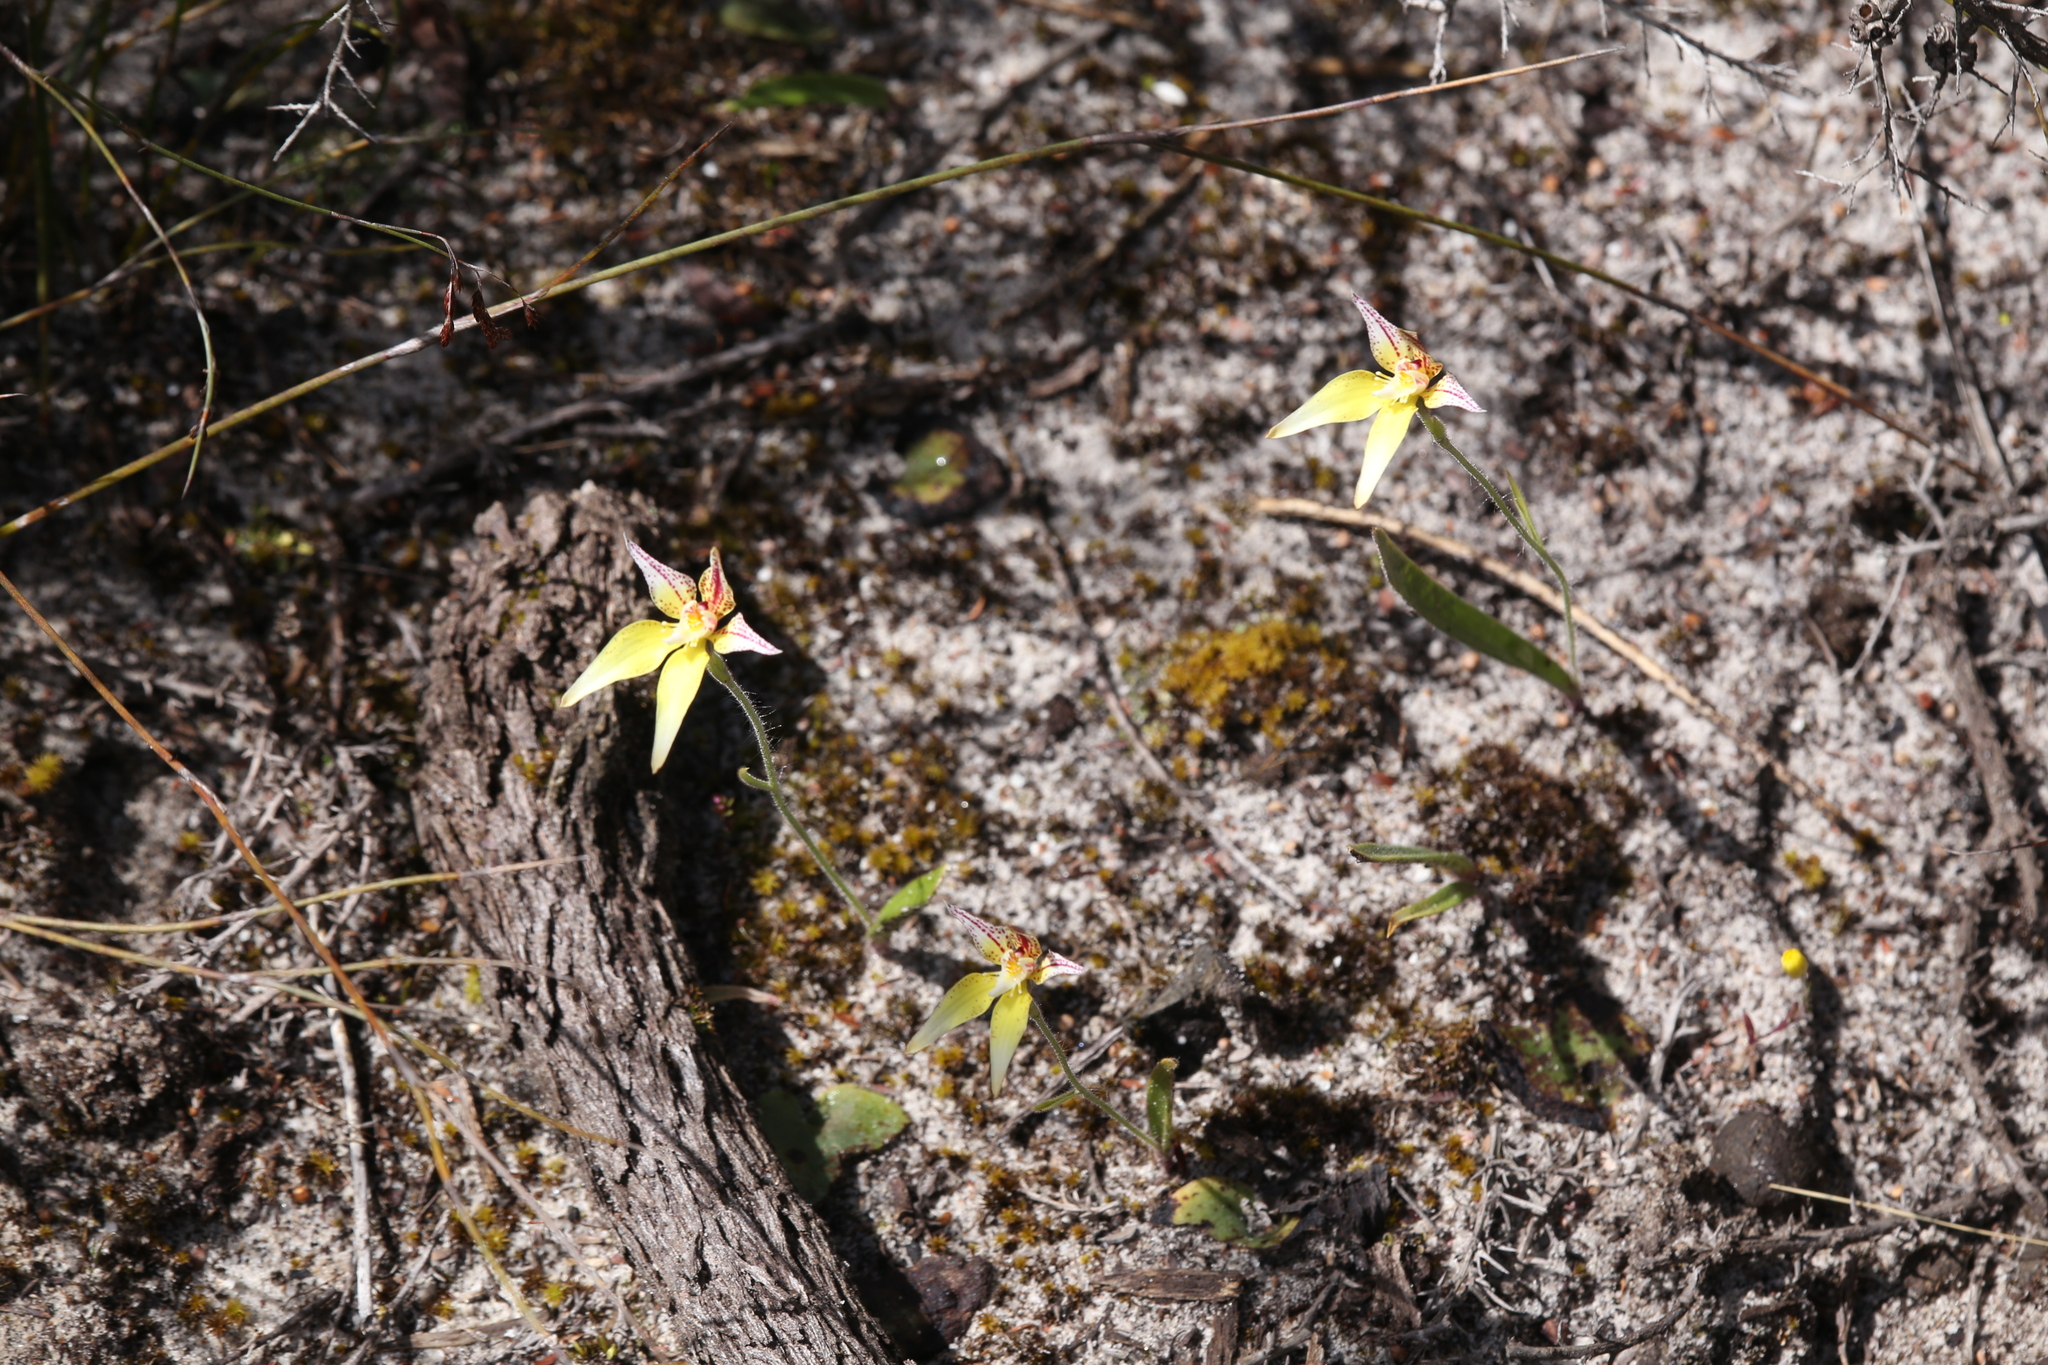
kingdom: Plantae
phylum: Tracheophyta
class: Liliopsida
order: Asparagales
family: Orchidaceae
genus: Caladenia
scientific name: Caladenia flava
